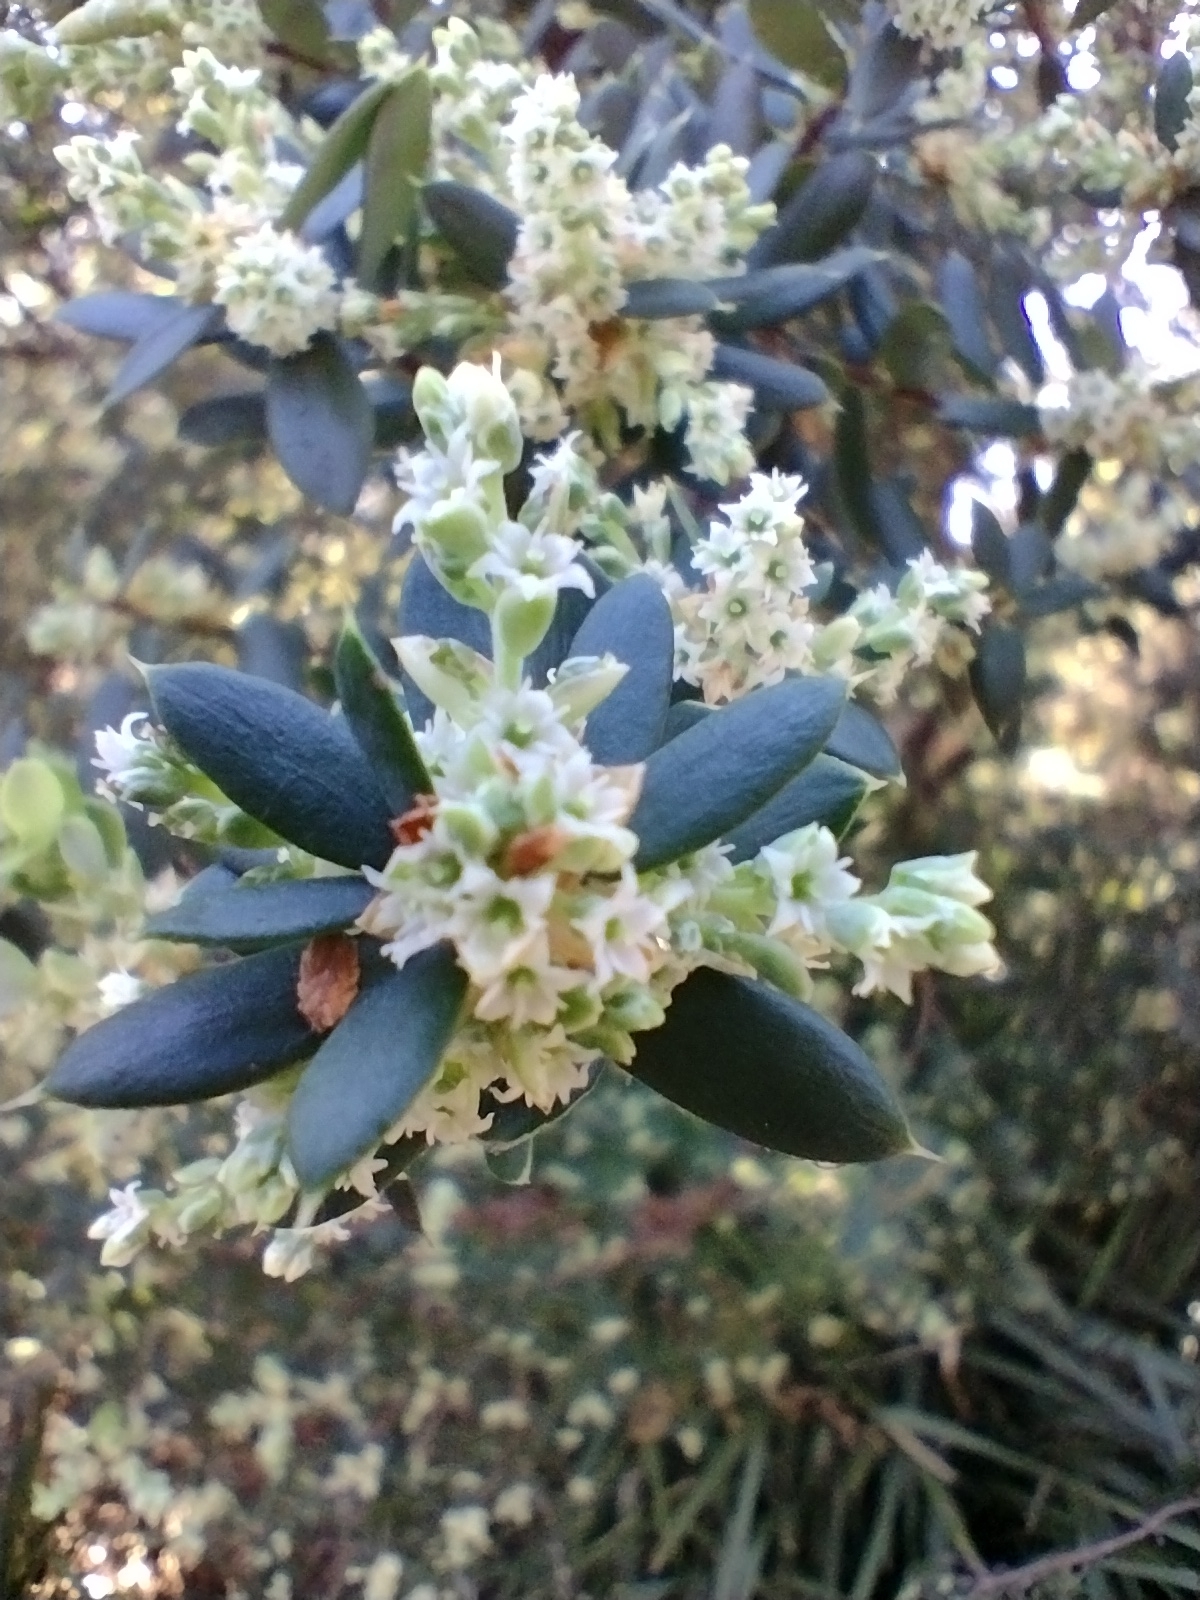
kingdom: Plantae
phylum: Tracheophyta
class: Magnoliopsida
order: Ericales
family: Ericaceae
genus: Monotoca
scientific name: Monotoca elliptica
